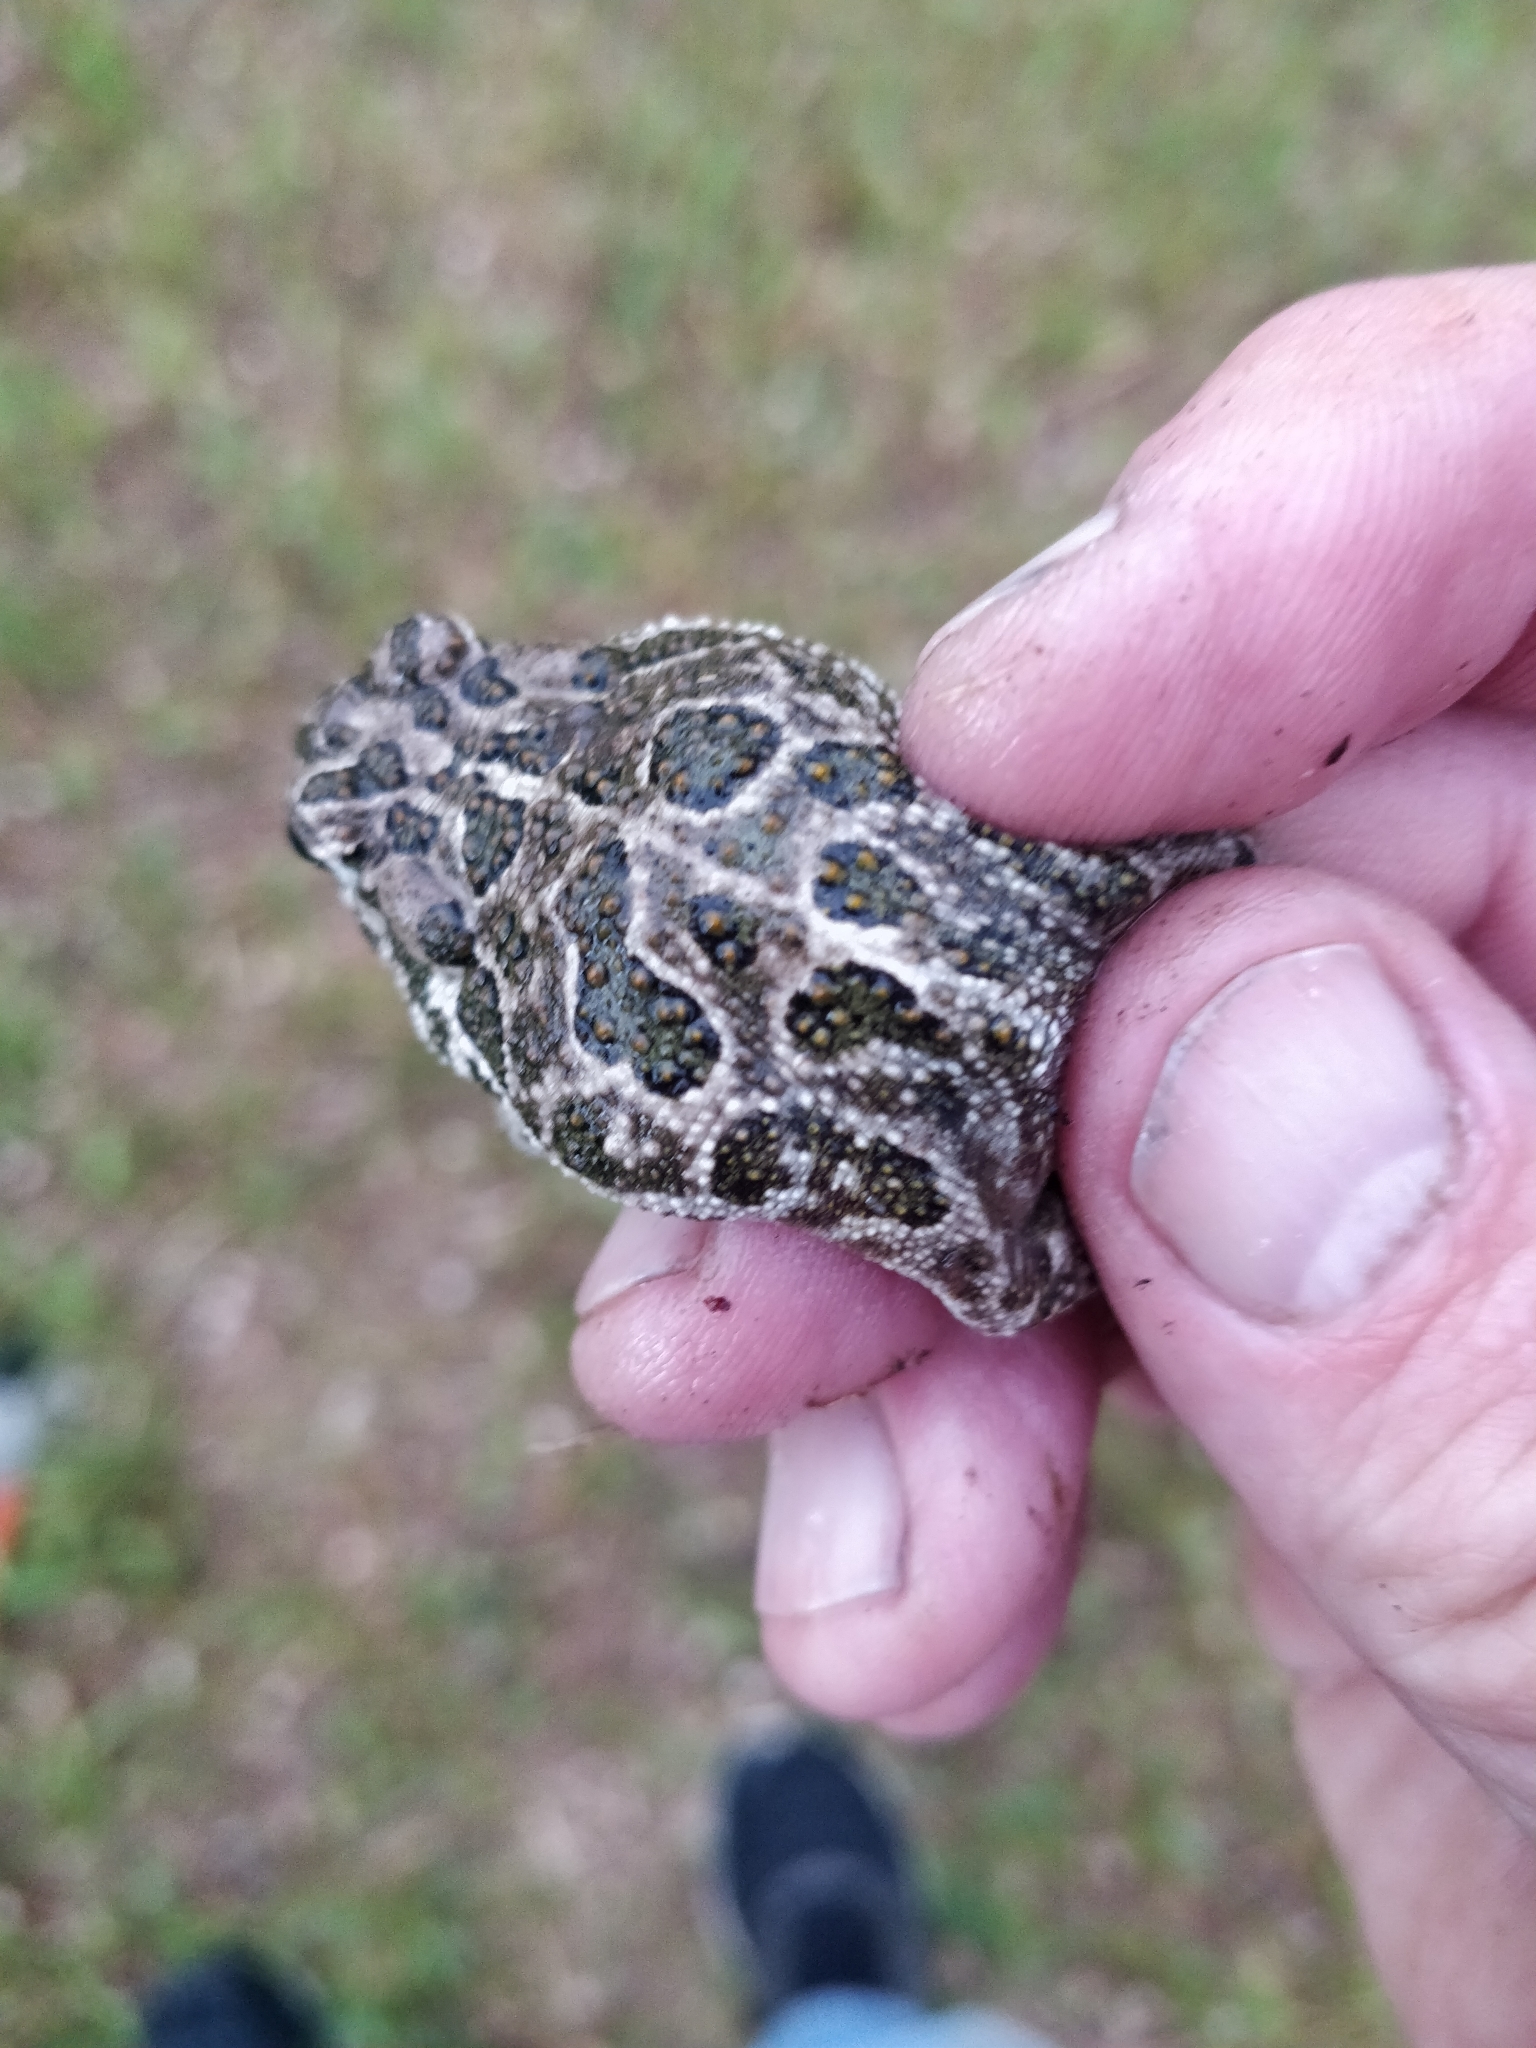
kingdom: Animalia
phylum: Chordata
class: Amphibia
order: Anura
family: Bufonidae
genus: Anaxyrus
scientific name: Anaxyrus cognatus
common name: Great plains toad
